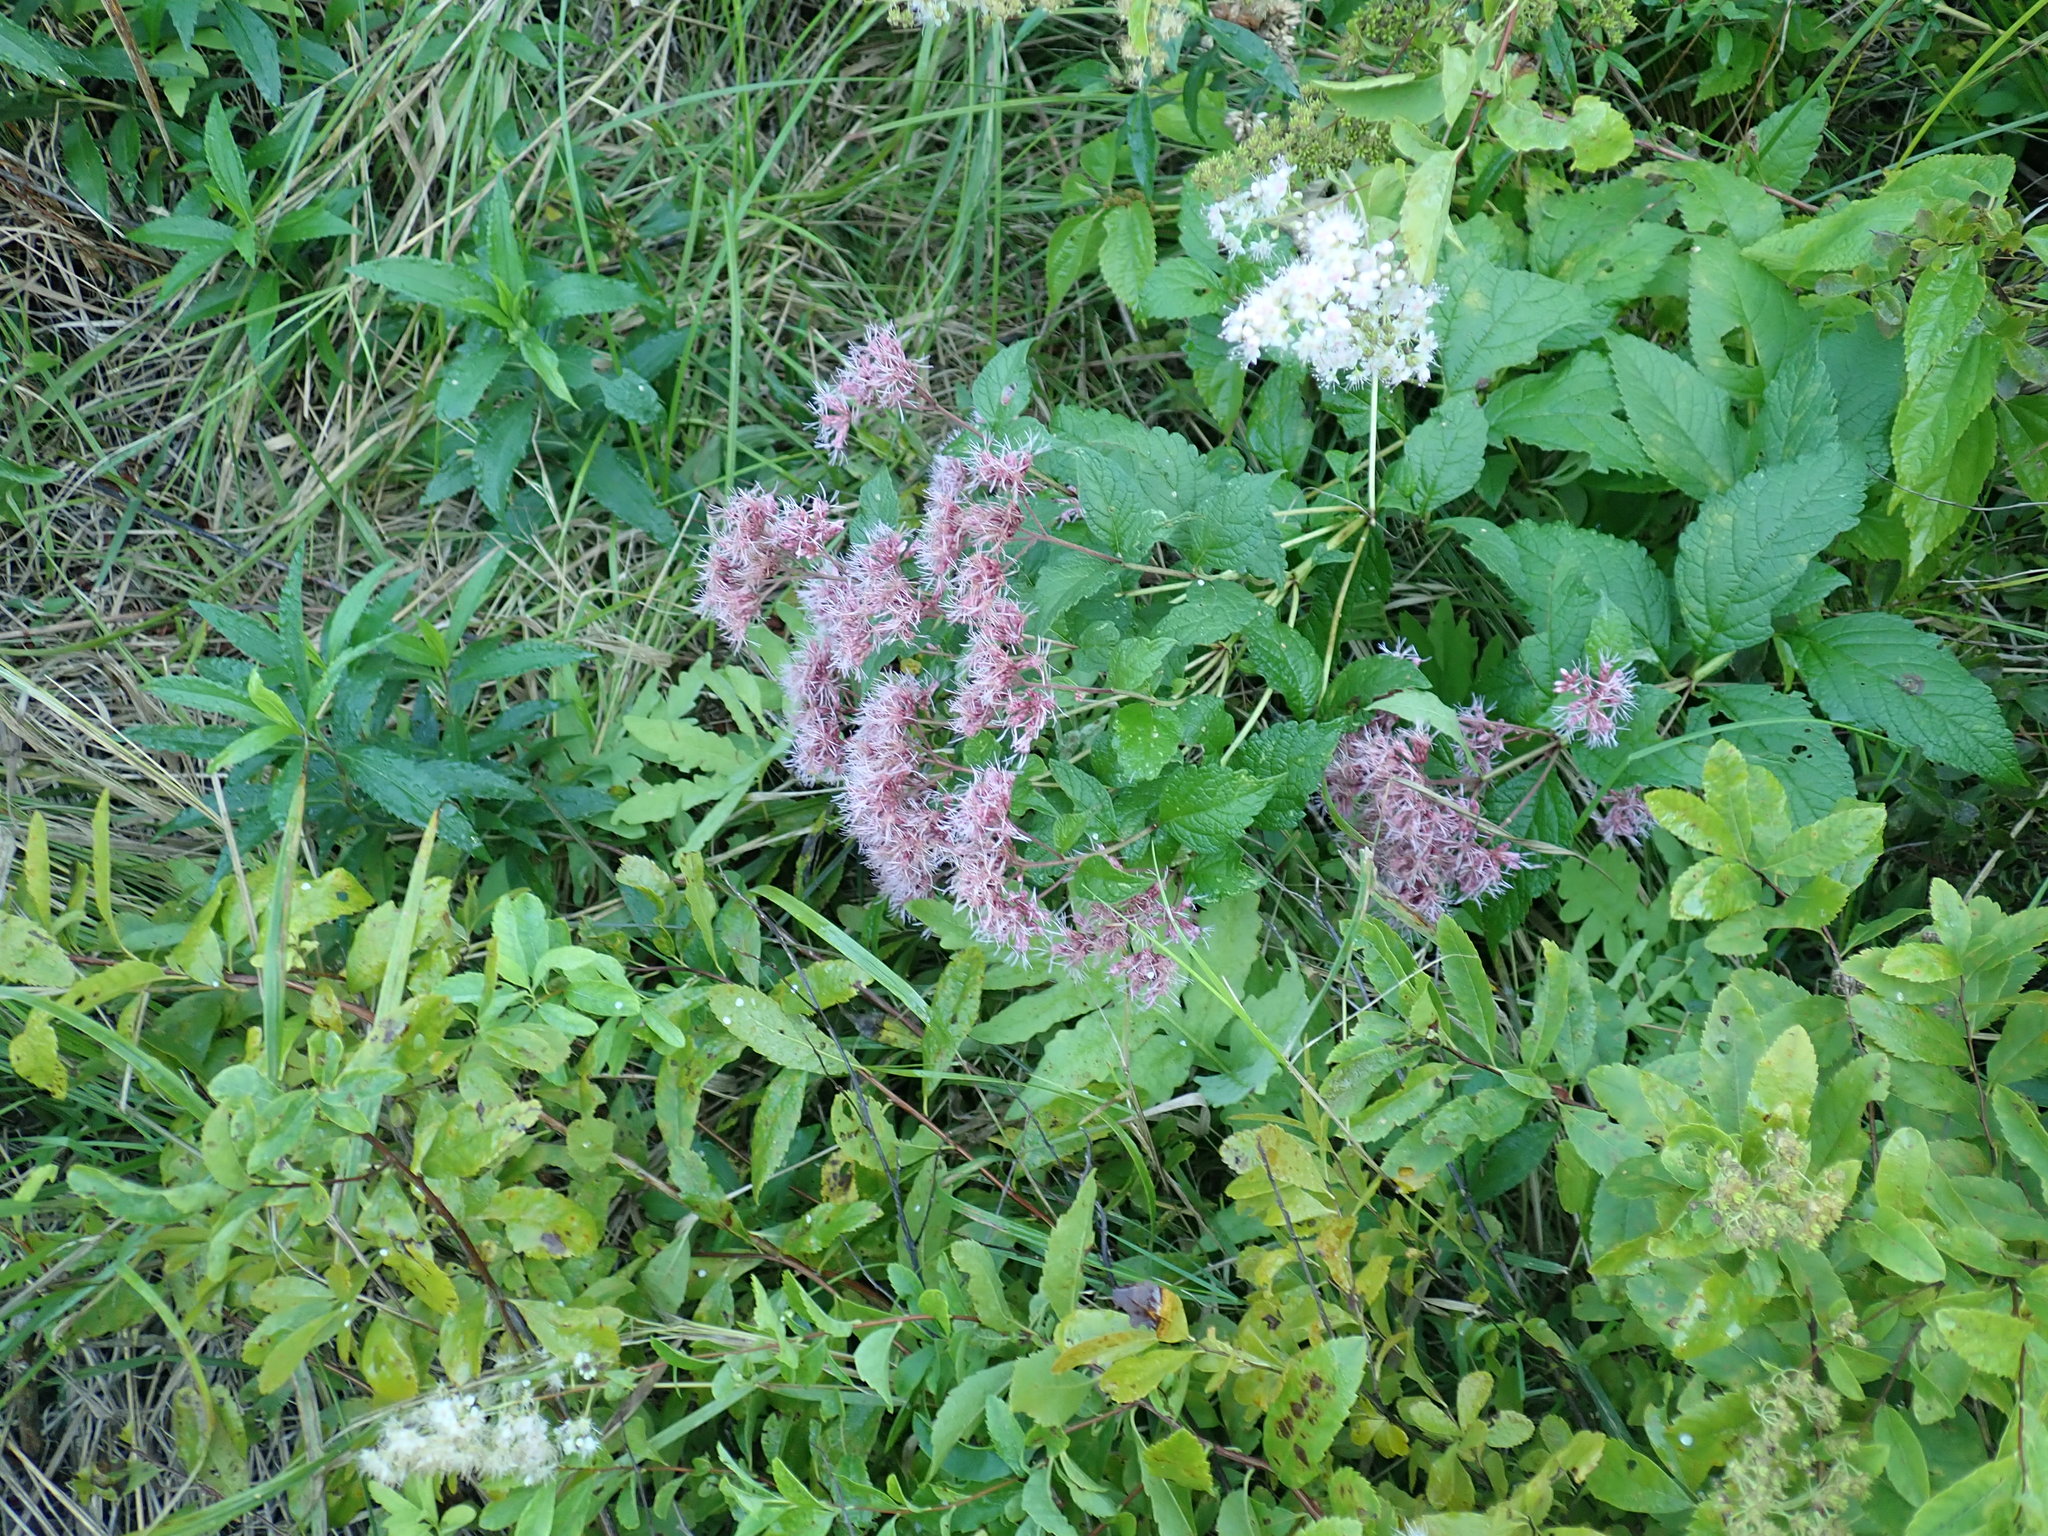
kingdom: Plantae
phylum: Tracheophyta
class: Magnoliopsida
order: Asterales
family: Asteraceae
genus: Eutrochium
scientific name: Eutrochium
